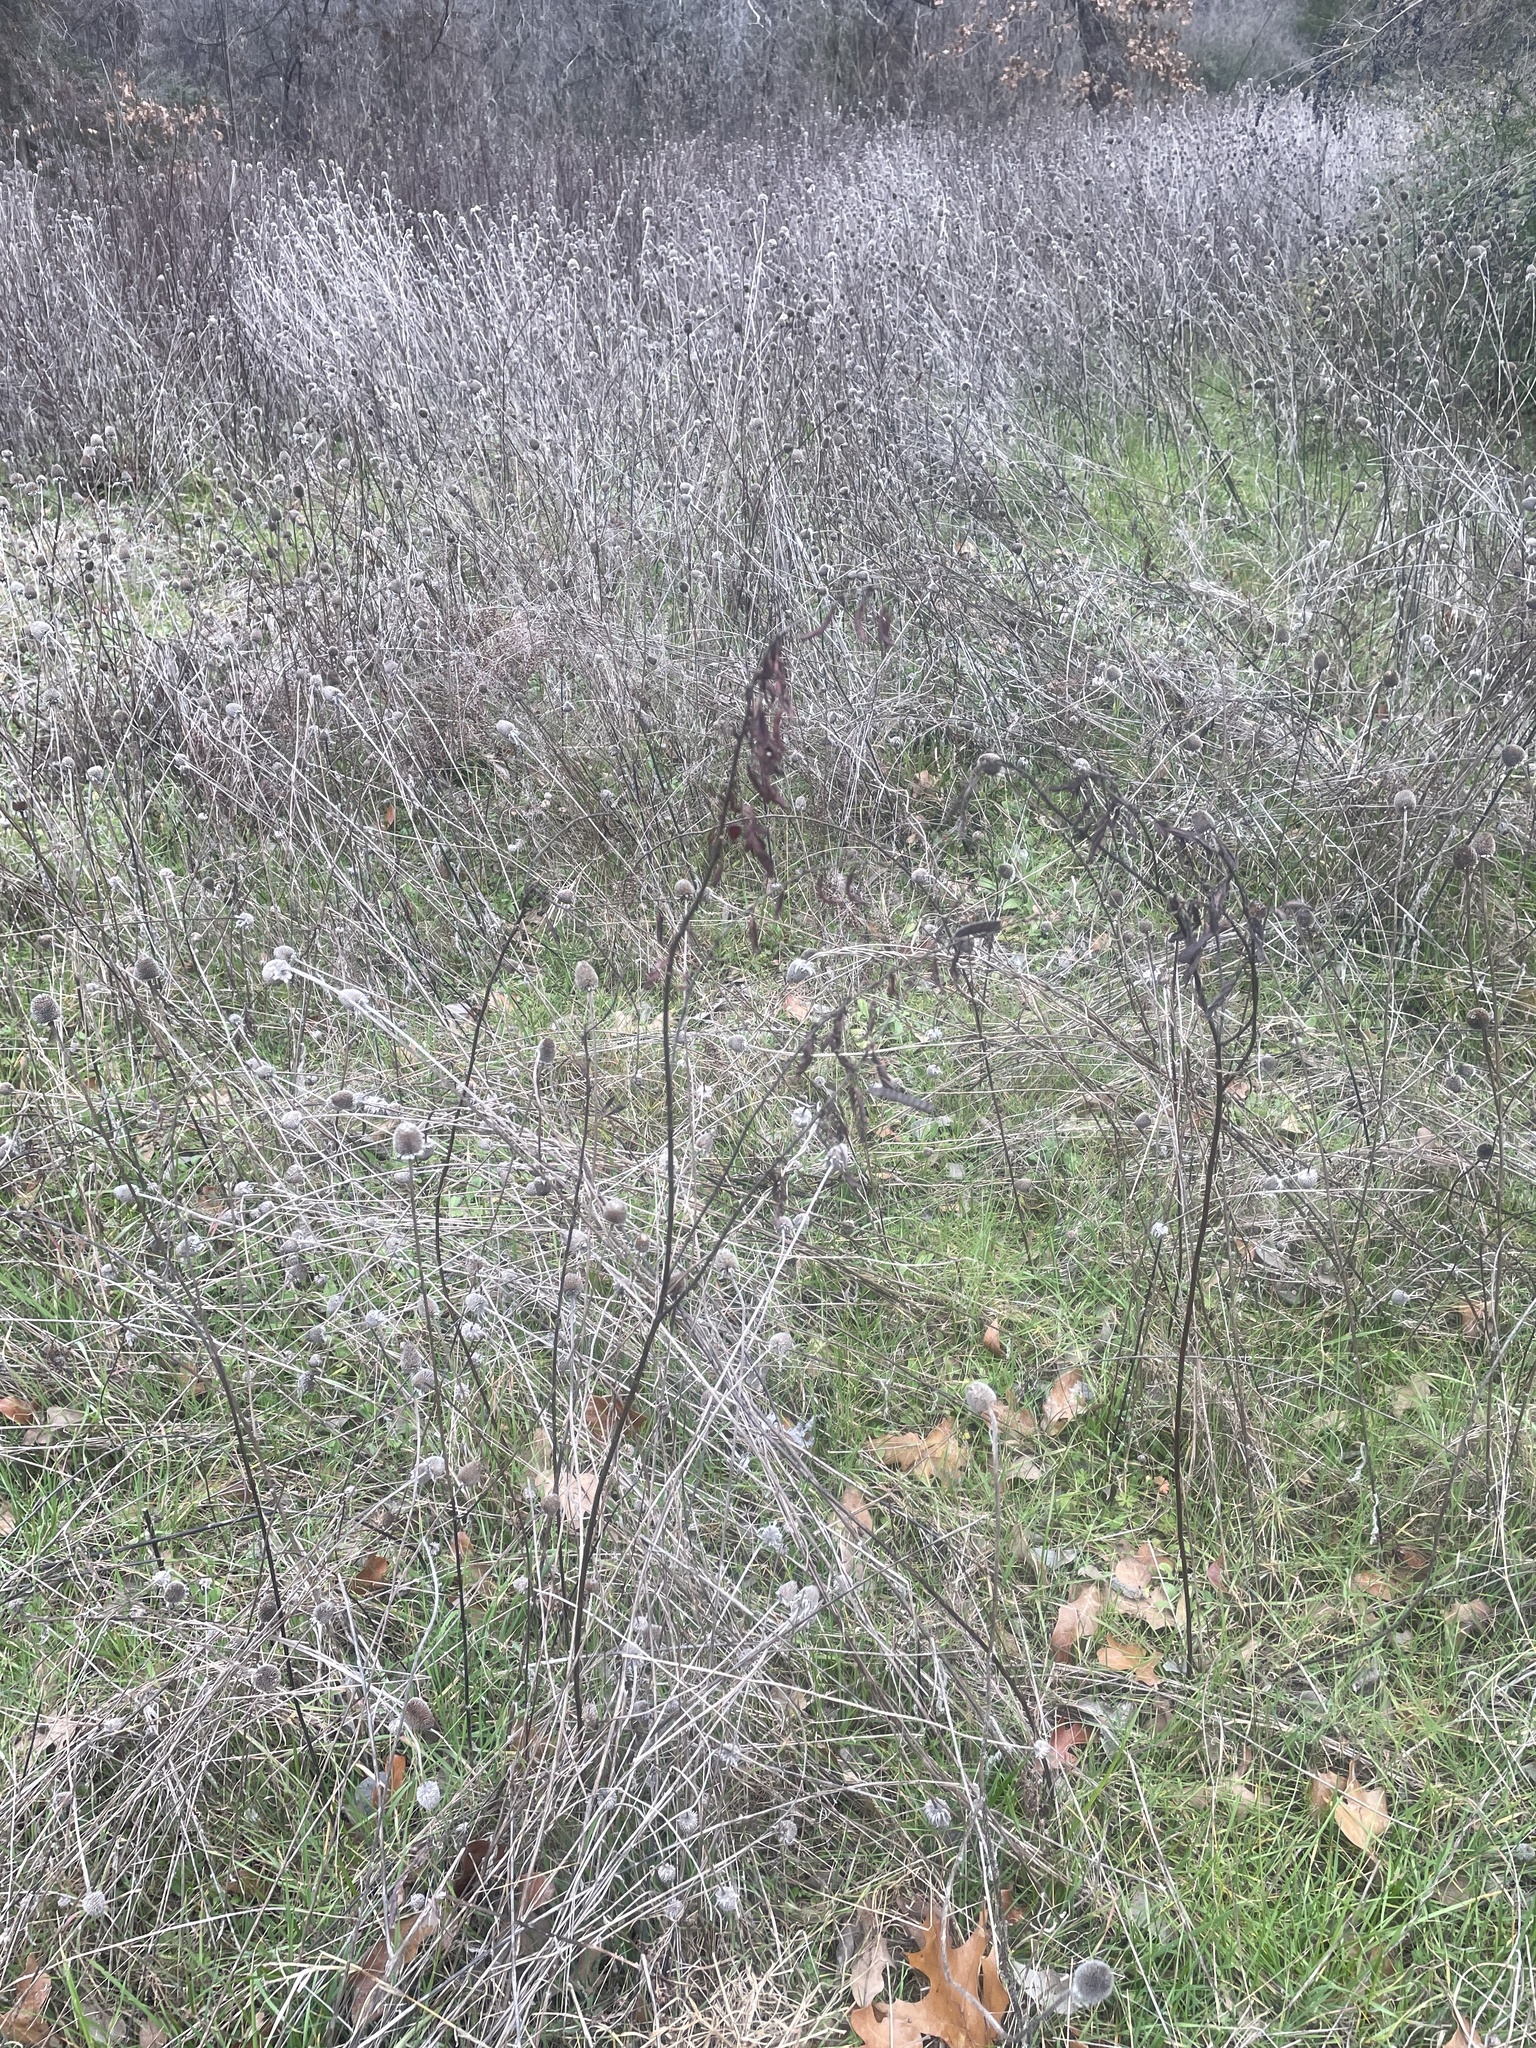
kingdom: Plantae
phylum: Tracheophyta
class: Magnoliopsida
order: Fabales
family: Fabaceae
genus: Chamaecrista
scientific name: Chamaecrista fasciculata
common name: Golden cassia
